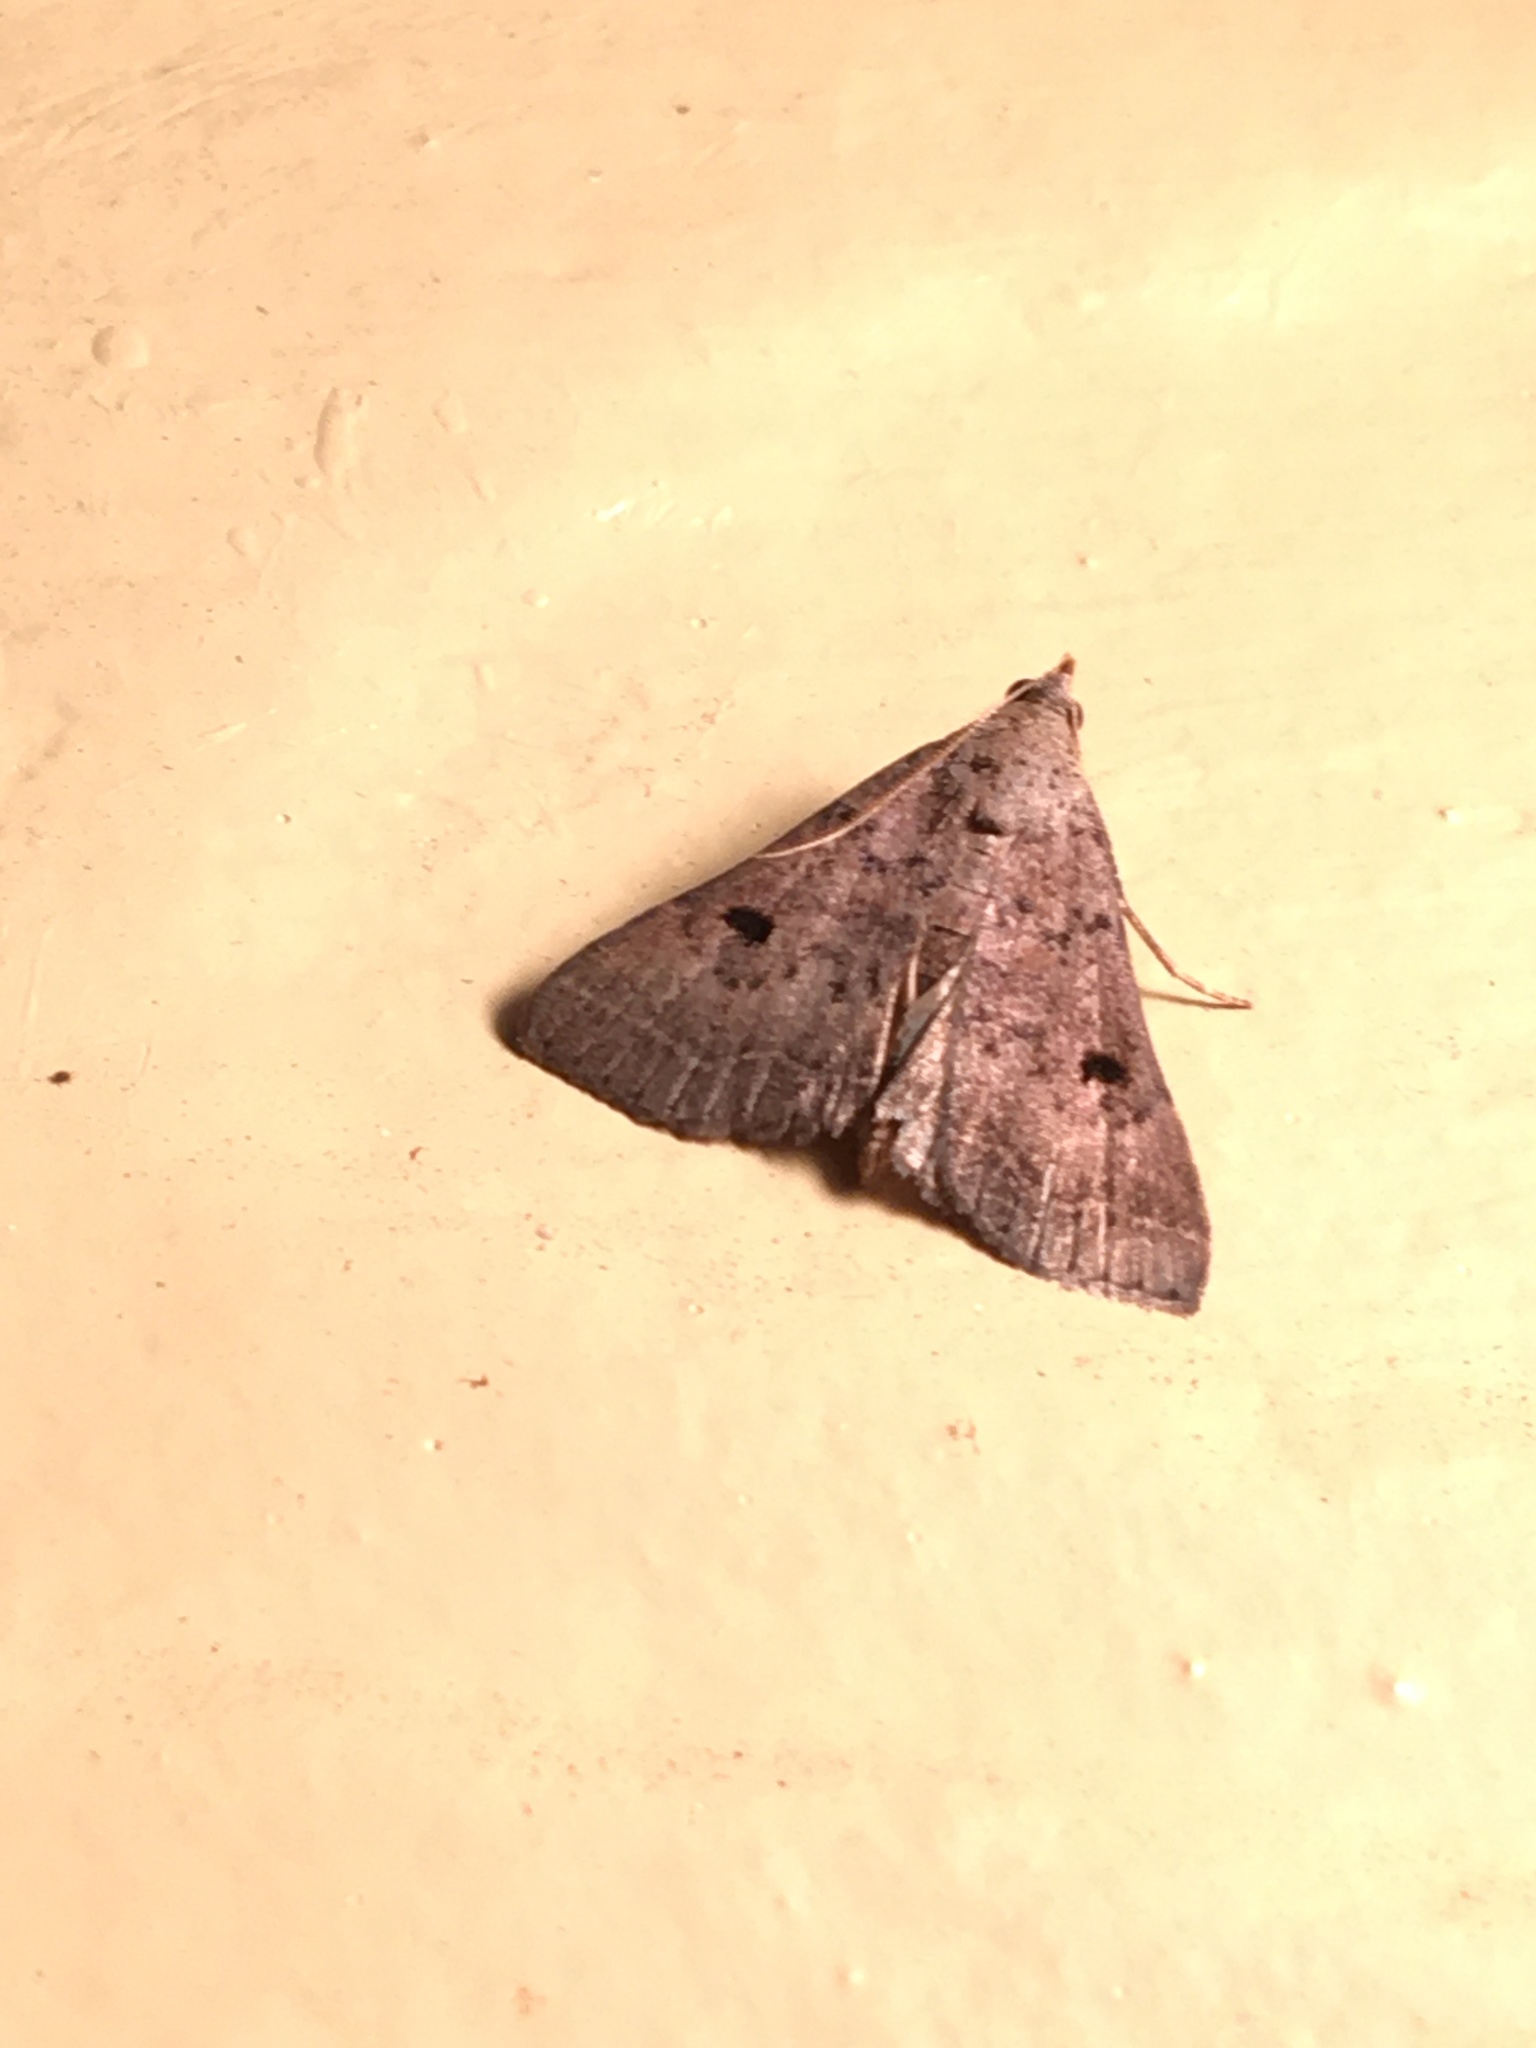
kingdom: Animalia
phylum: Arthropoda
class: Insecta
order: Lepidoptera
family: Erebidae
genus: Bleptina
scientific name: Bleptina caradrinalis
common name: Bent-winged owlet
